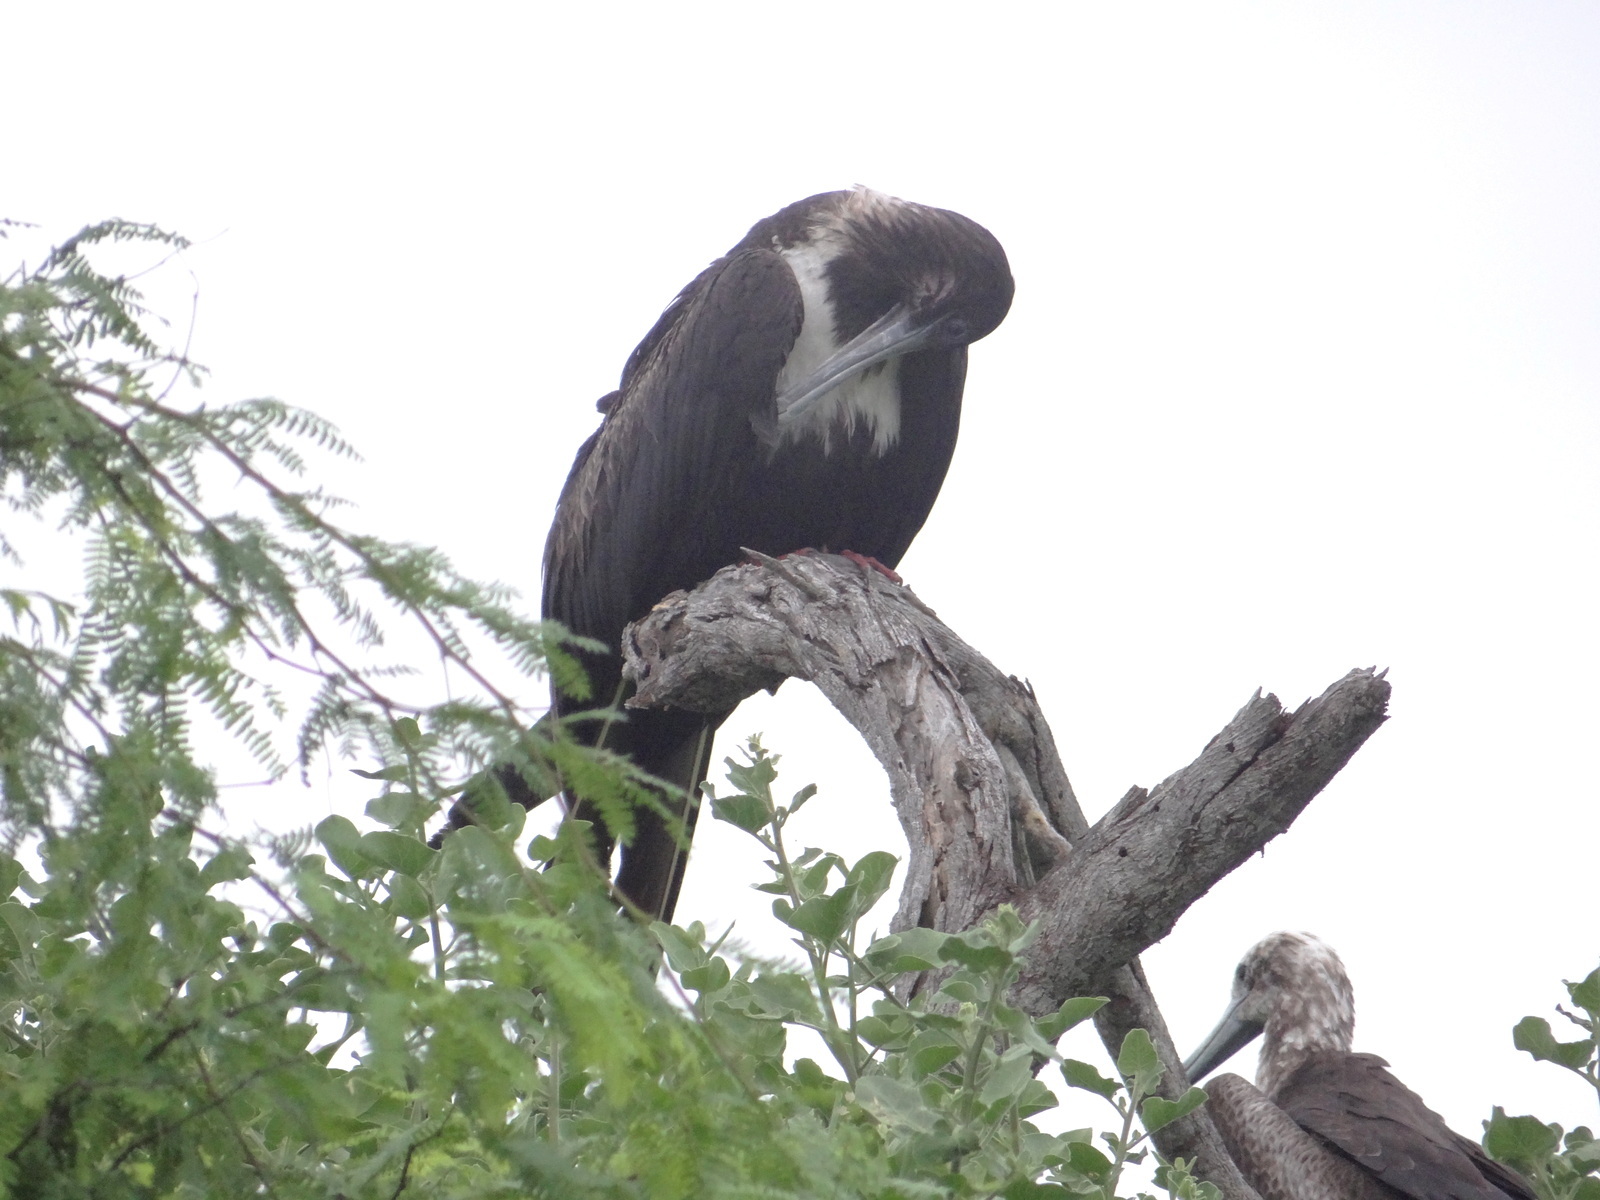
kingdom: Animalia
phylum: Chordata
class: Aves
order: Suliformes
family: Fregatidae
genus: Fregata
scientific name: Fregata magnificens
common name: Magnificent frigatebird
